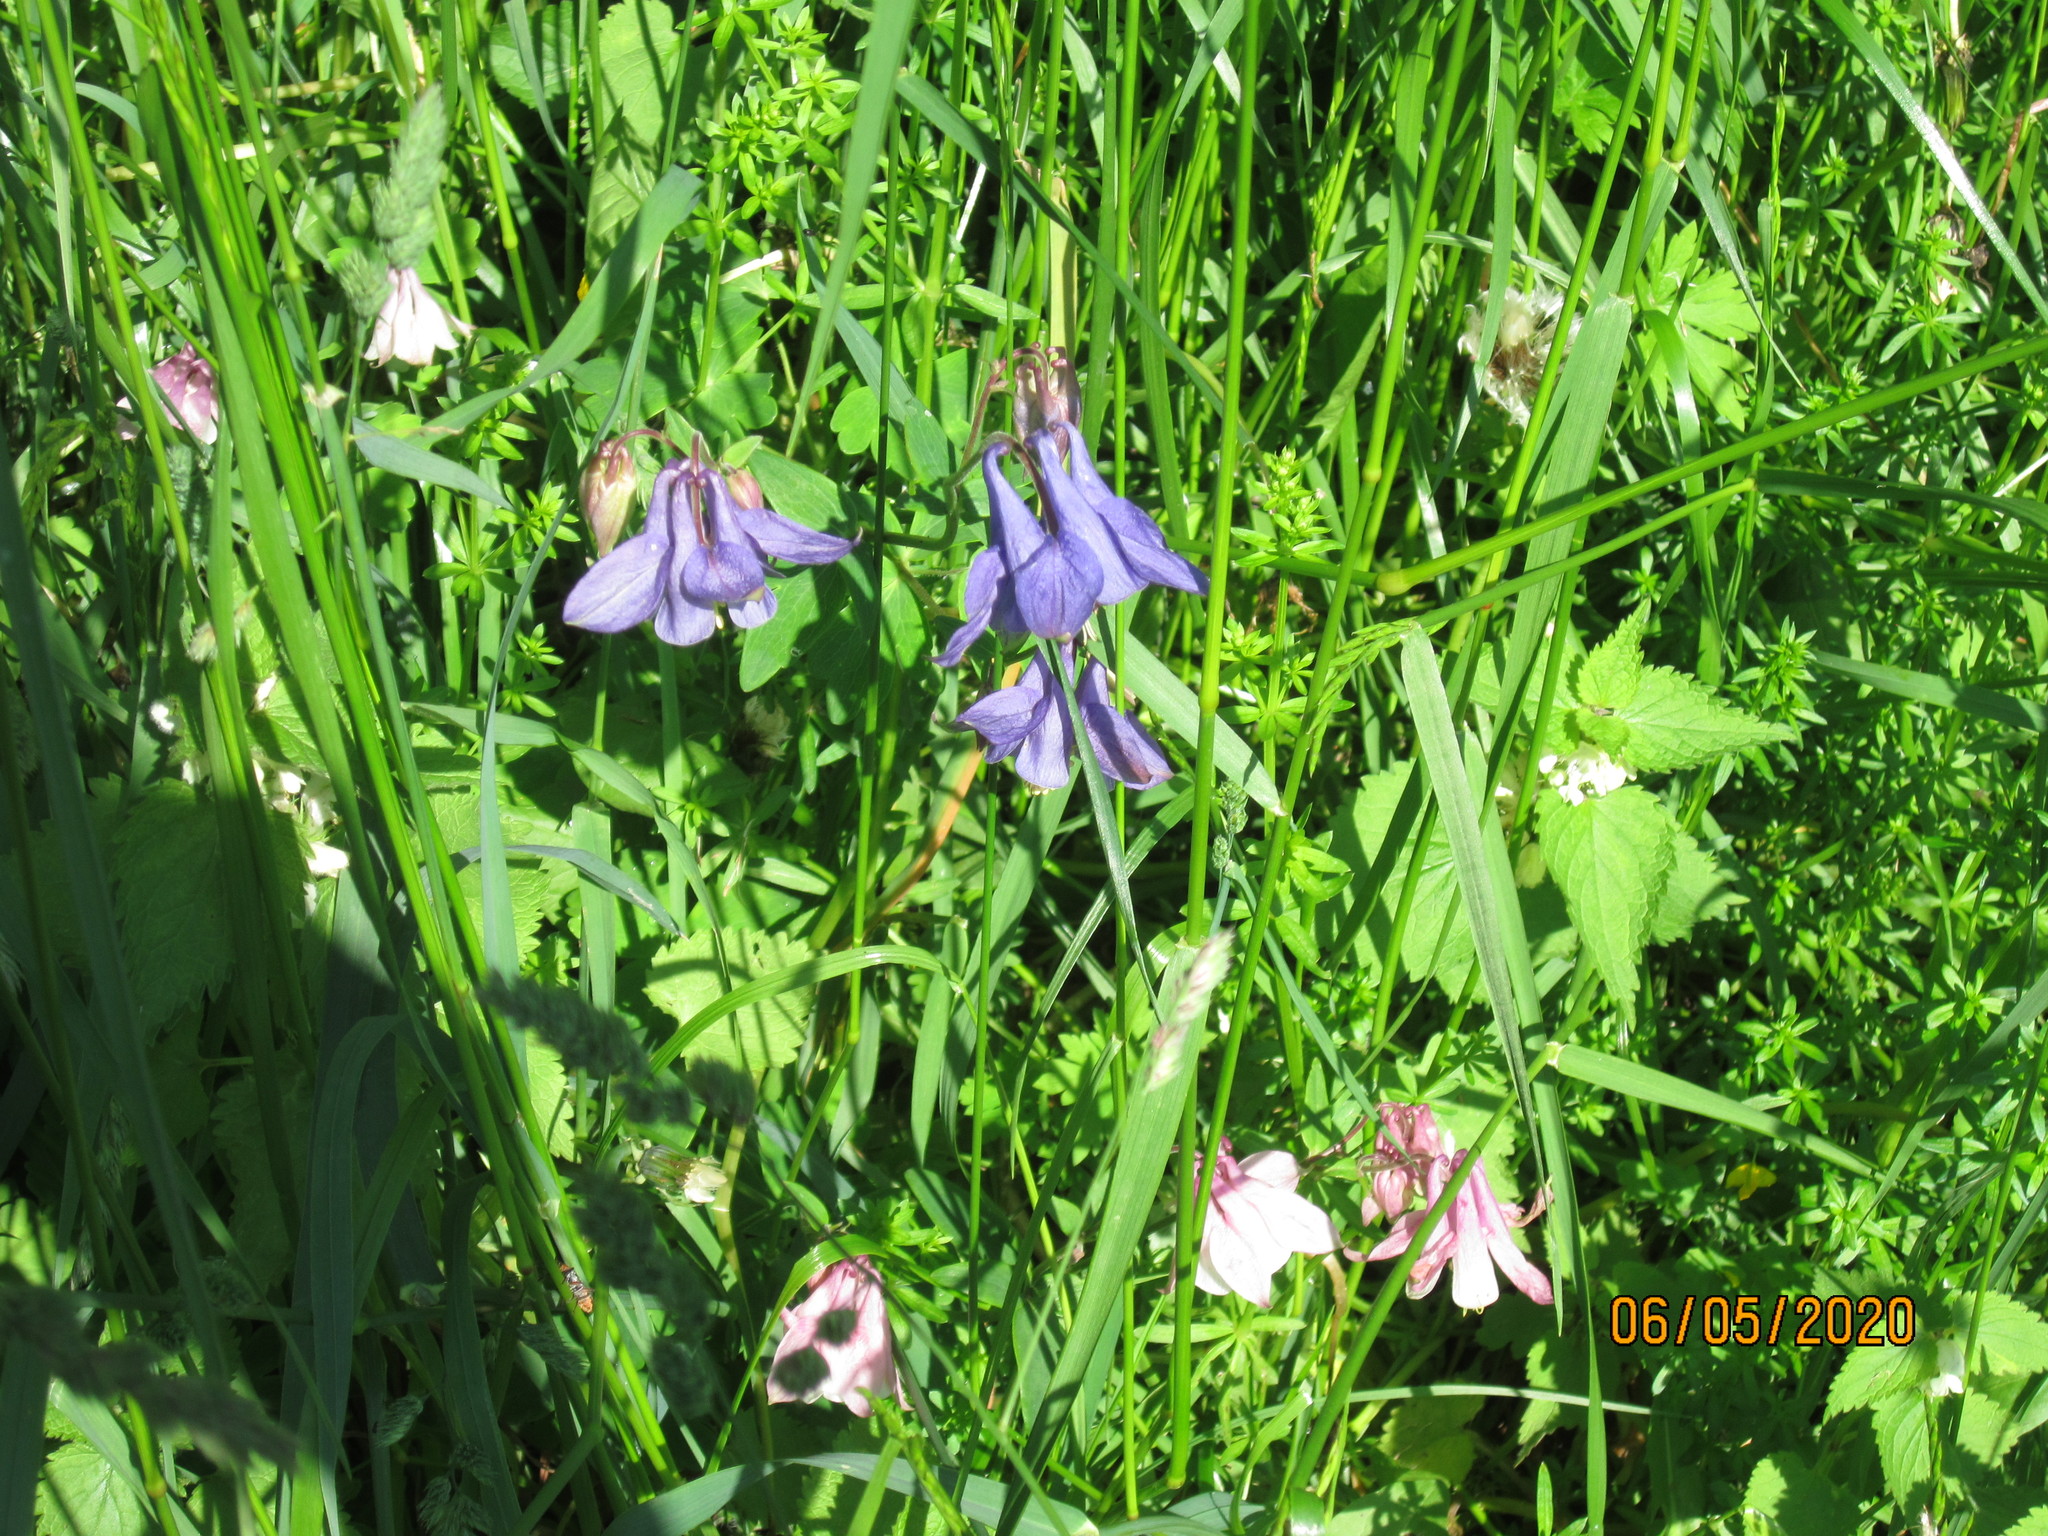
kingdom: Plantae
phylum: Tracheophyta
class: Magnoliopsida
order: Ranunculales
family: Ranunculaceae
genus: Aquilegia
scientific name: Aquilegia vulgaris
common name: Columbine
